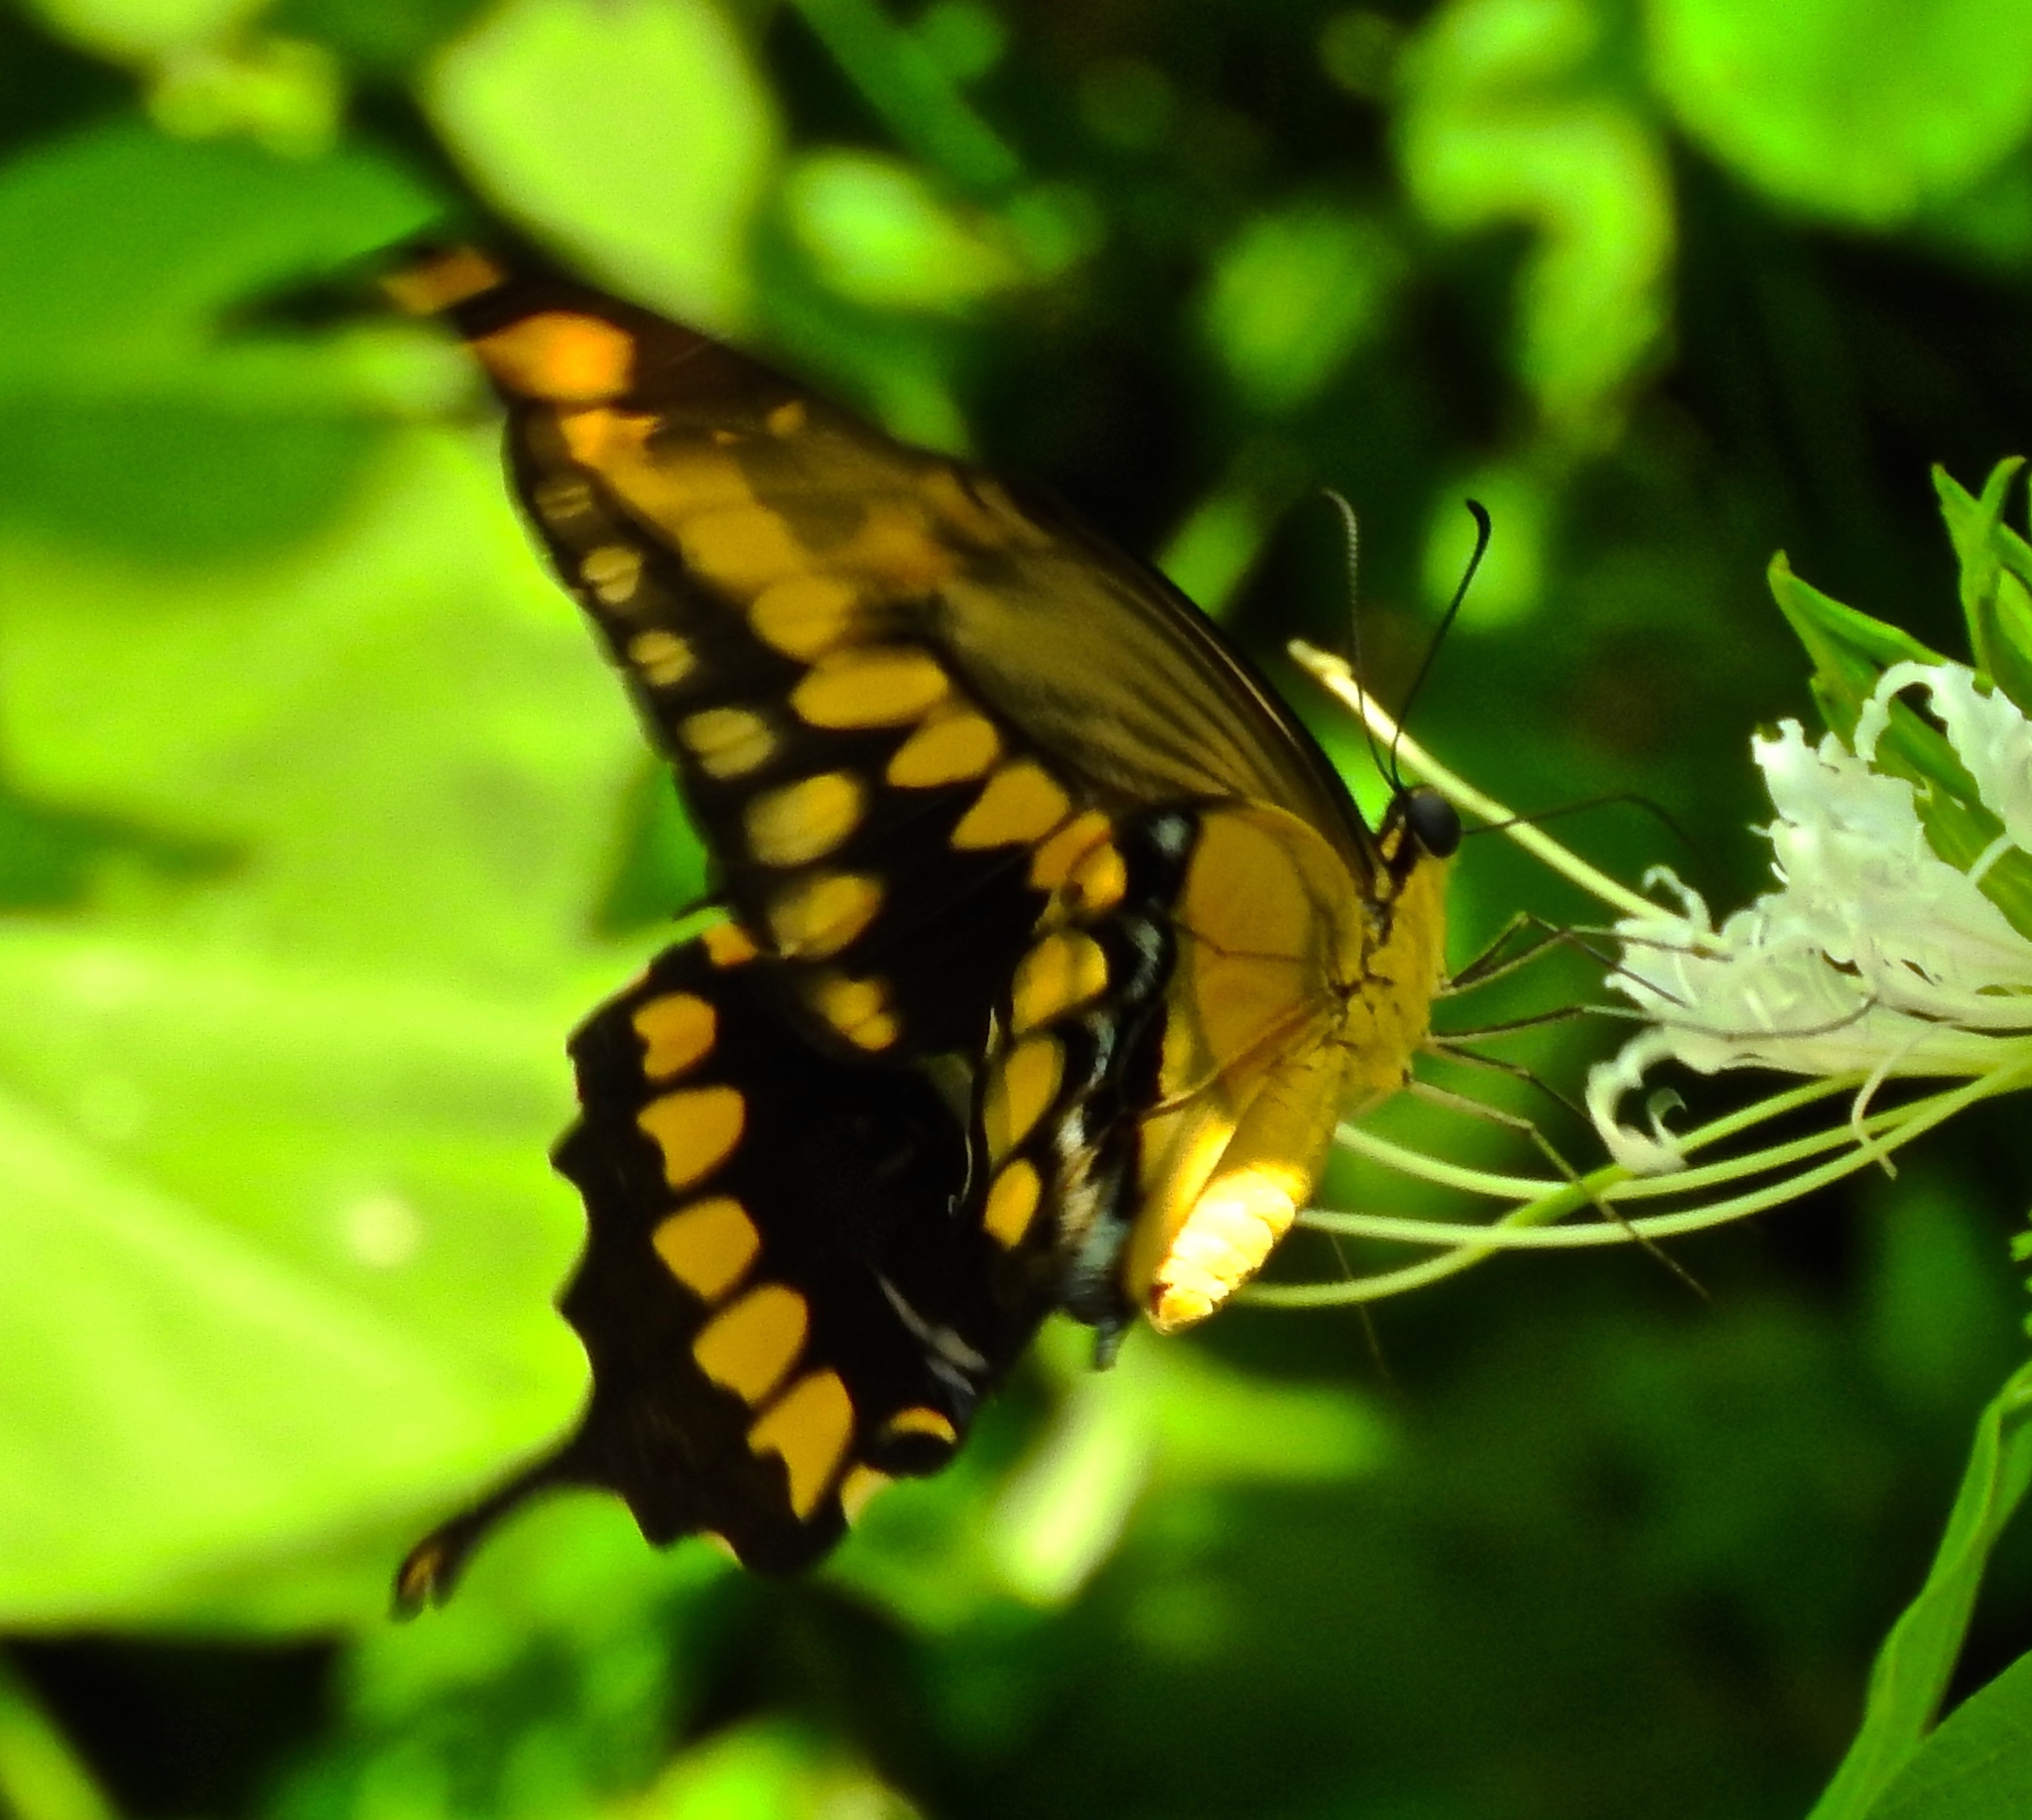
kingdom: Animalia
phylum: Arthropoda
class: Insecta
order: Lepidoptera
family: Papilionidae
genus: Papilio
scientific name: Papilio rumiko
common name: Western giant swallowtail
